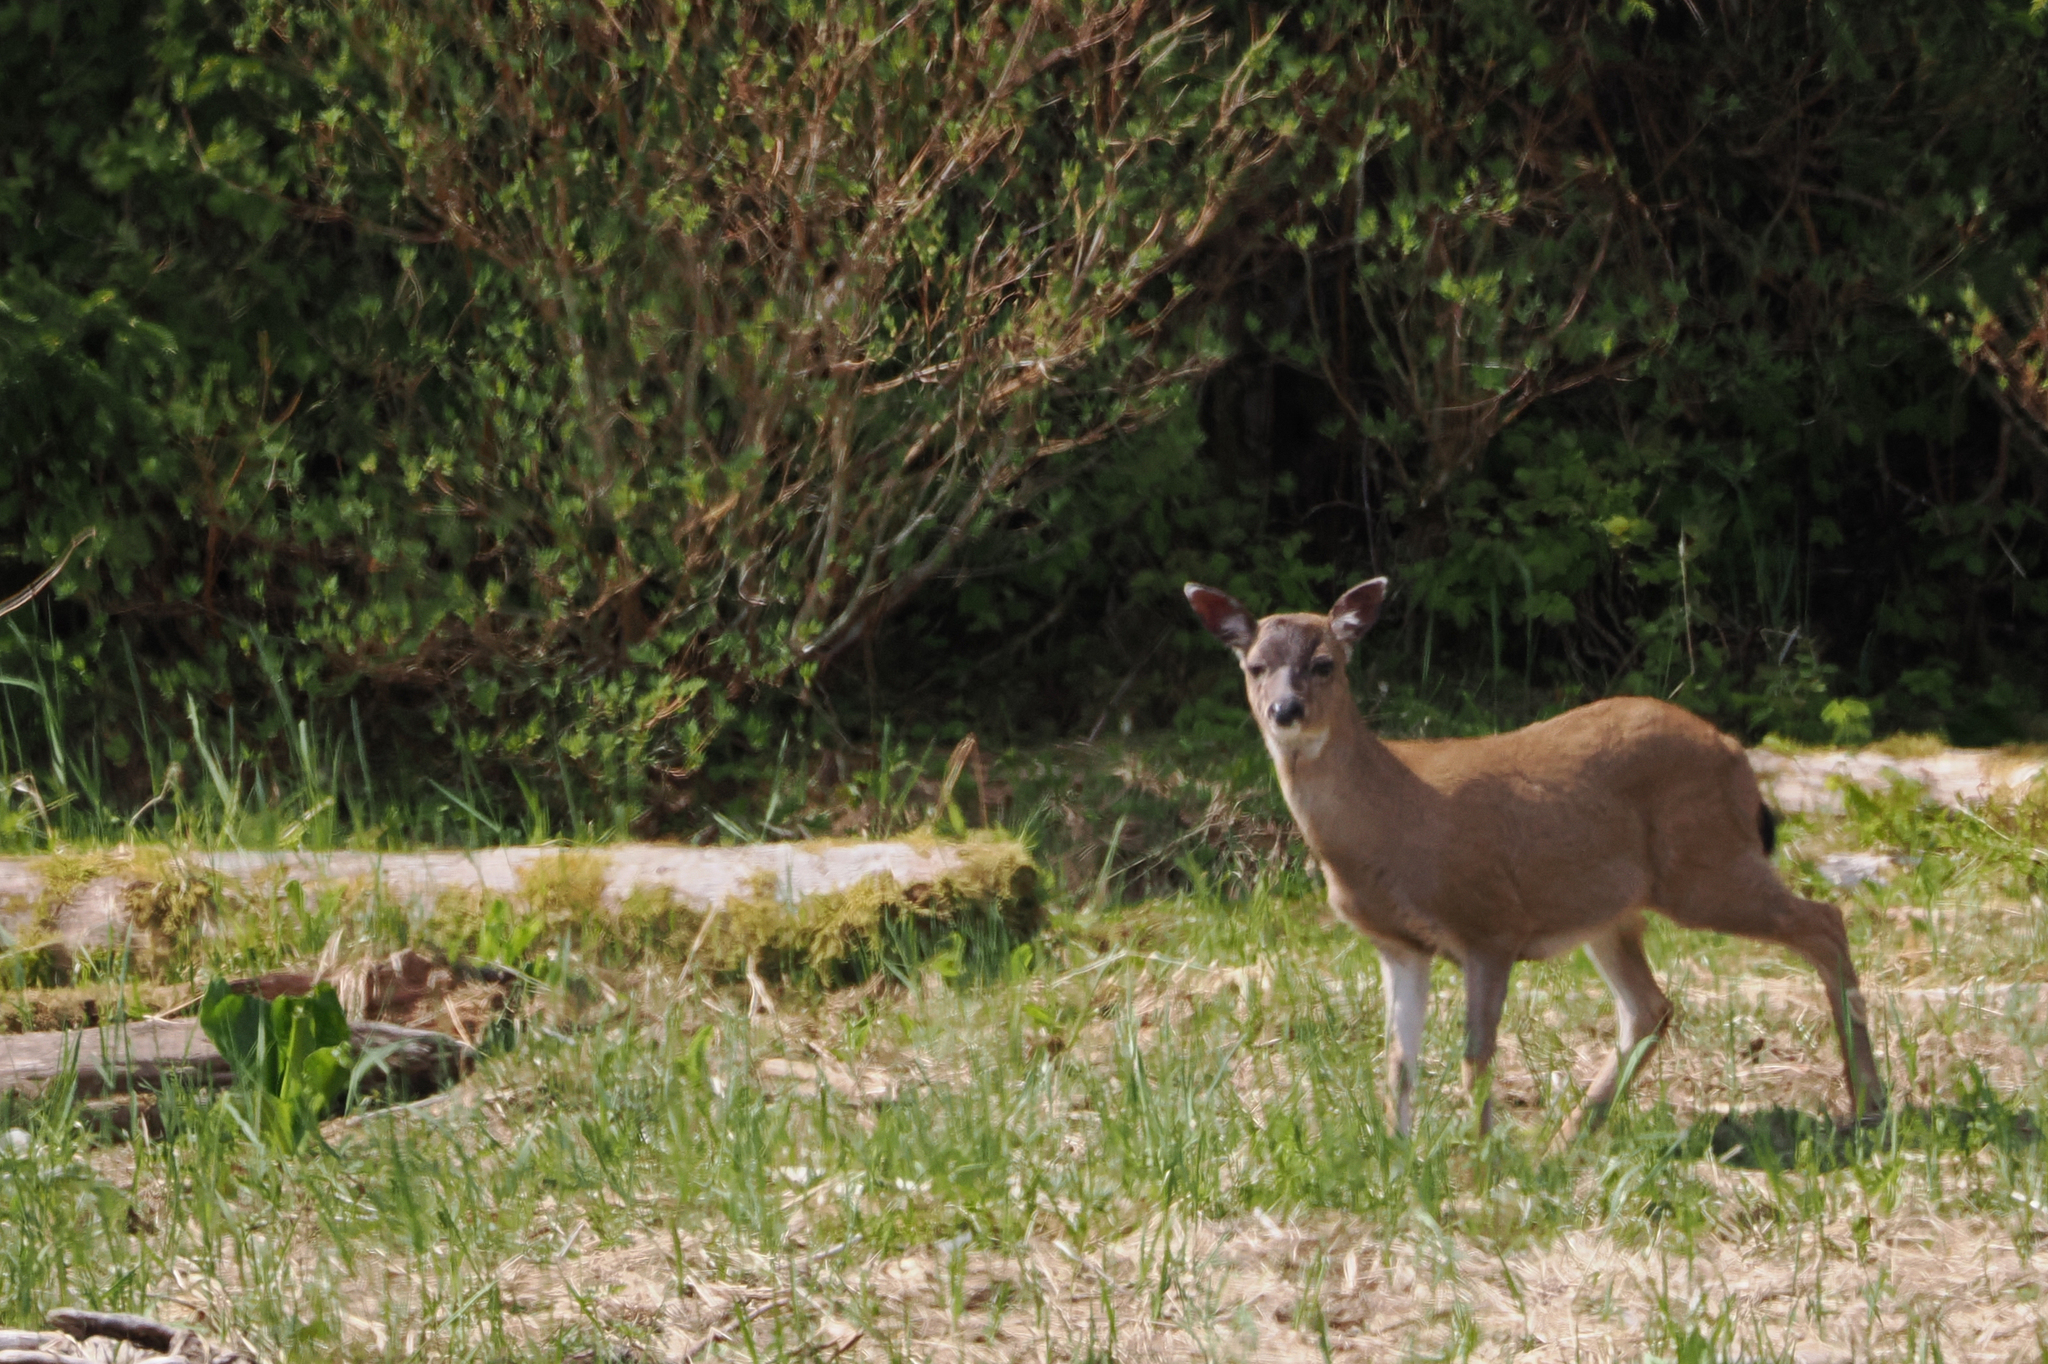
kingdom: Animalia
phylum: Chordata
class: Mammalia
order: Artiodactyla
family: Cervidae
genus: Odocoileus
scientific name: Odocoileus hemionus
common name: Mule deer
